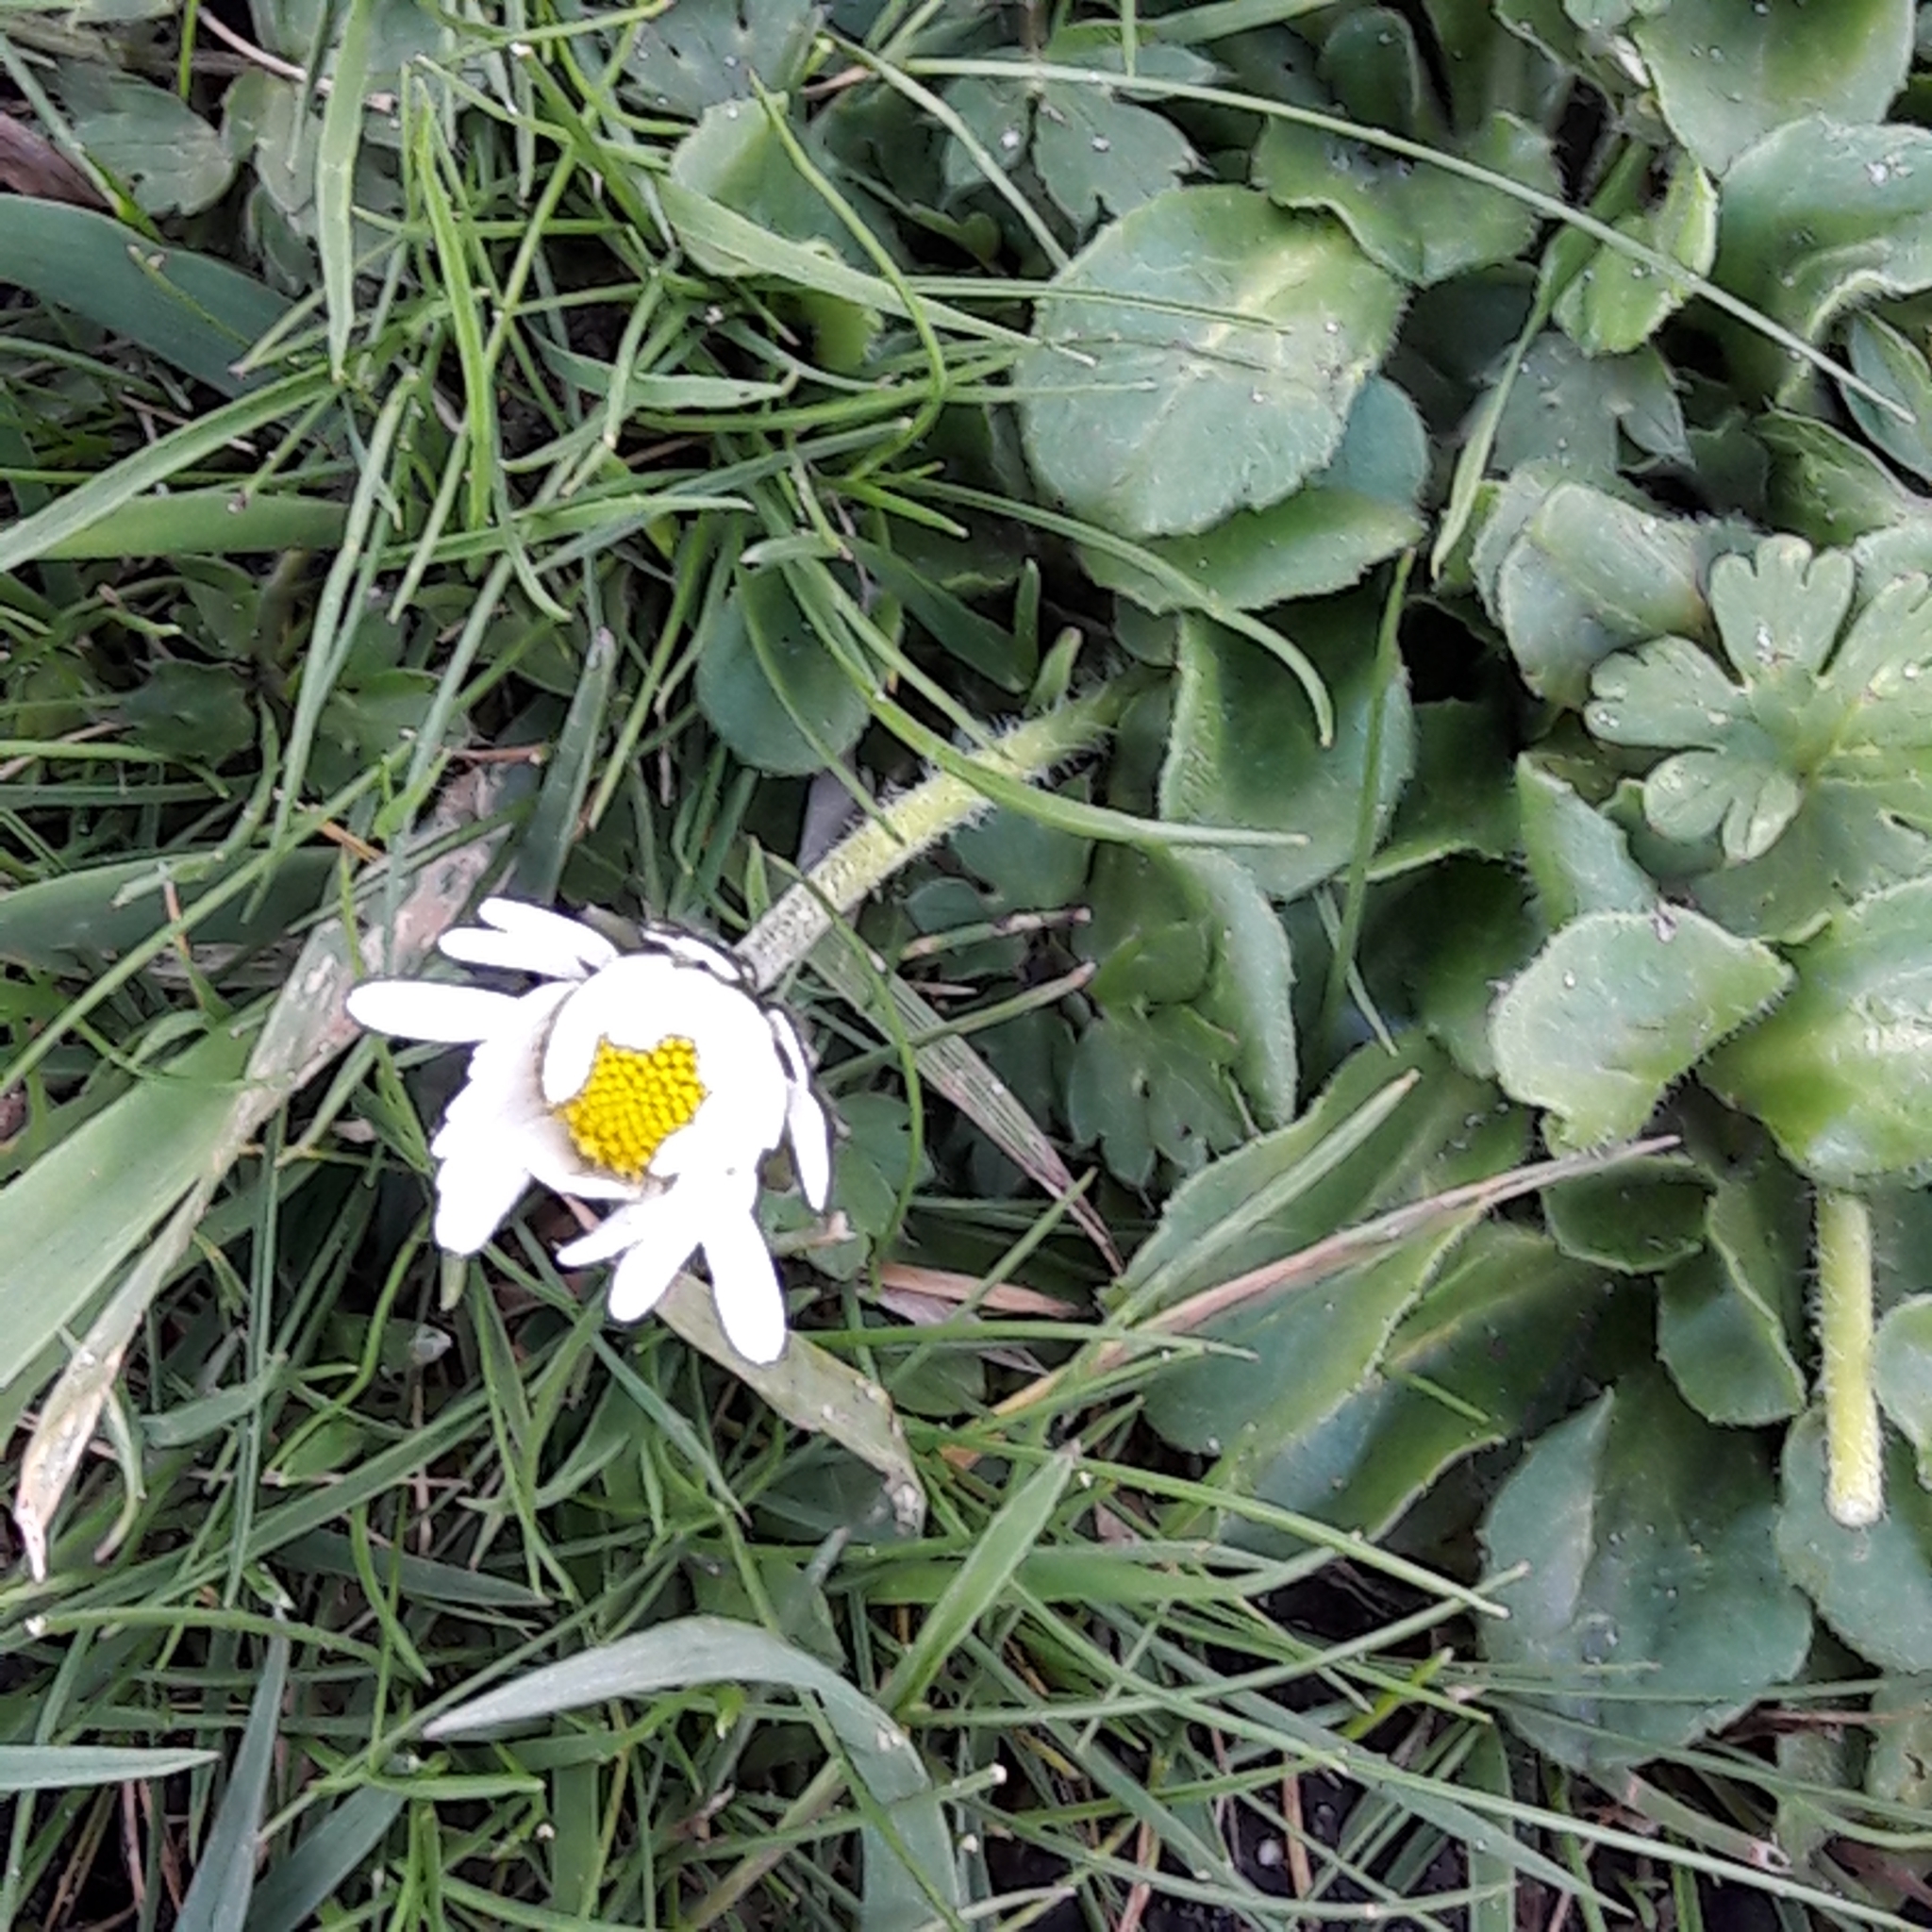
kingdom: Plantae
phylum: Tracheophyta
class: Magnoliopsida
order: Asterales
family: Asteraceae
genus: Bellis
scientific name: Bellis perennis
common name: Lawndaisy
